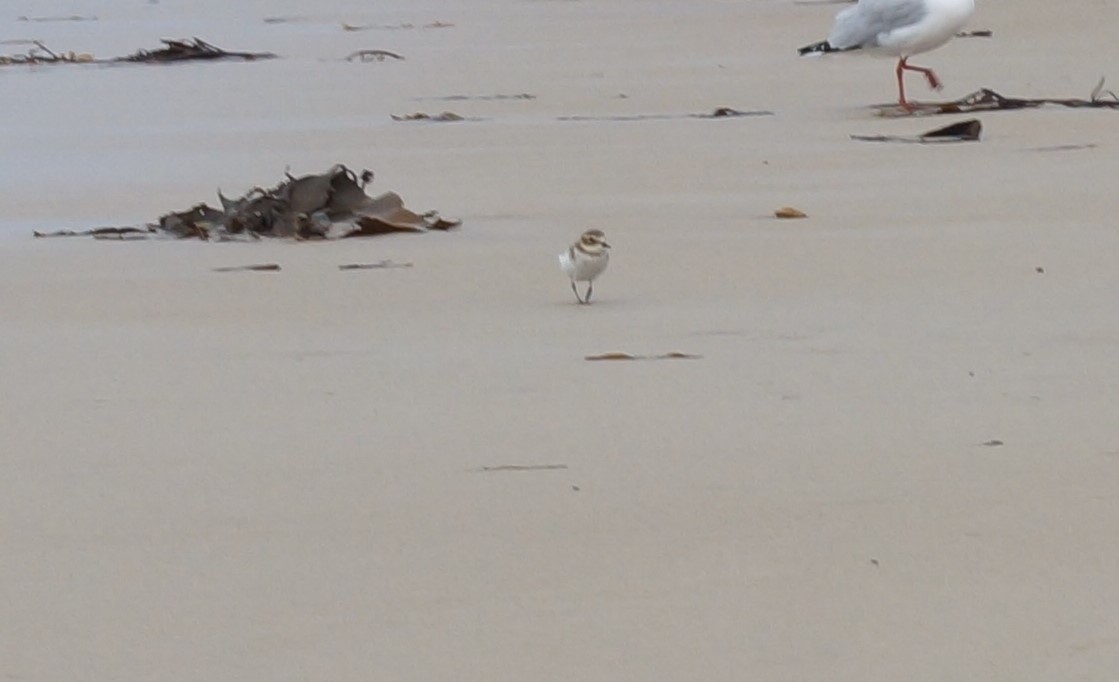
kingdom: Animalia
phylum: Chordata
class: Aves
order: Charadriiformes
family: Charadriidae
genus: Anarhynchus
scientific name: Anarhynchus
